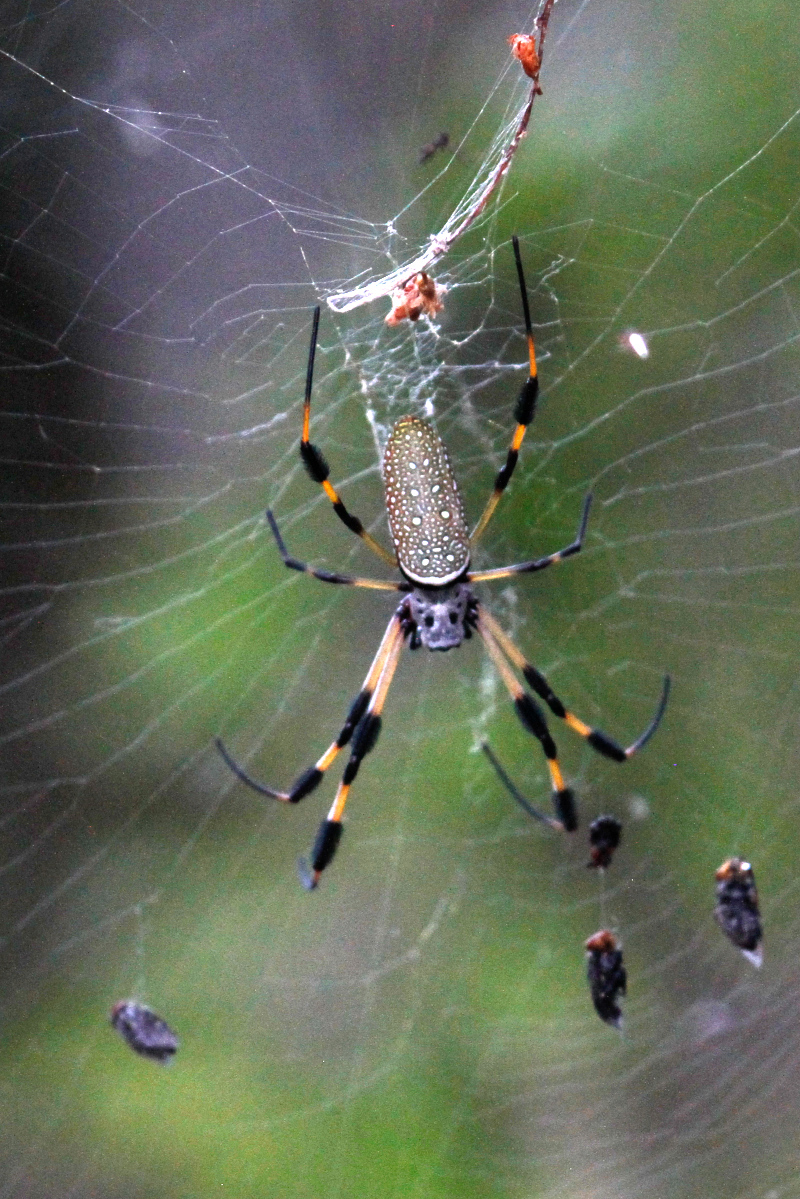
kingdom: Animalia
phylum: Arthropoda
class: Arachnida
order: Araneae
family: Araneidae
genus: Trichonephila
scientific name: Trichonephila clavipes
